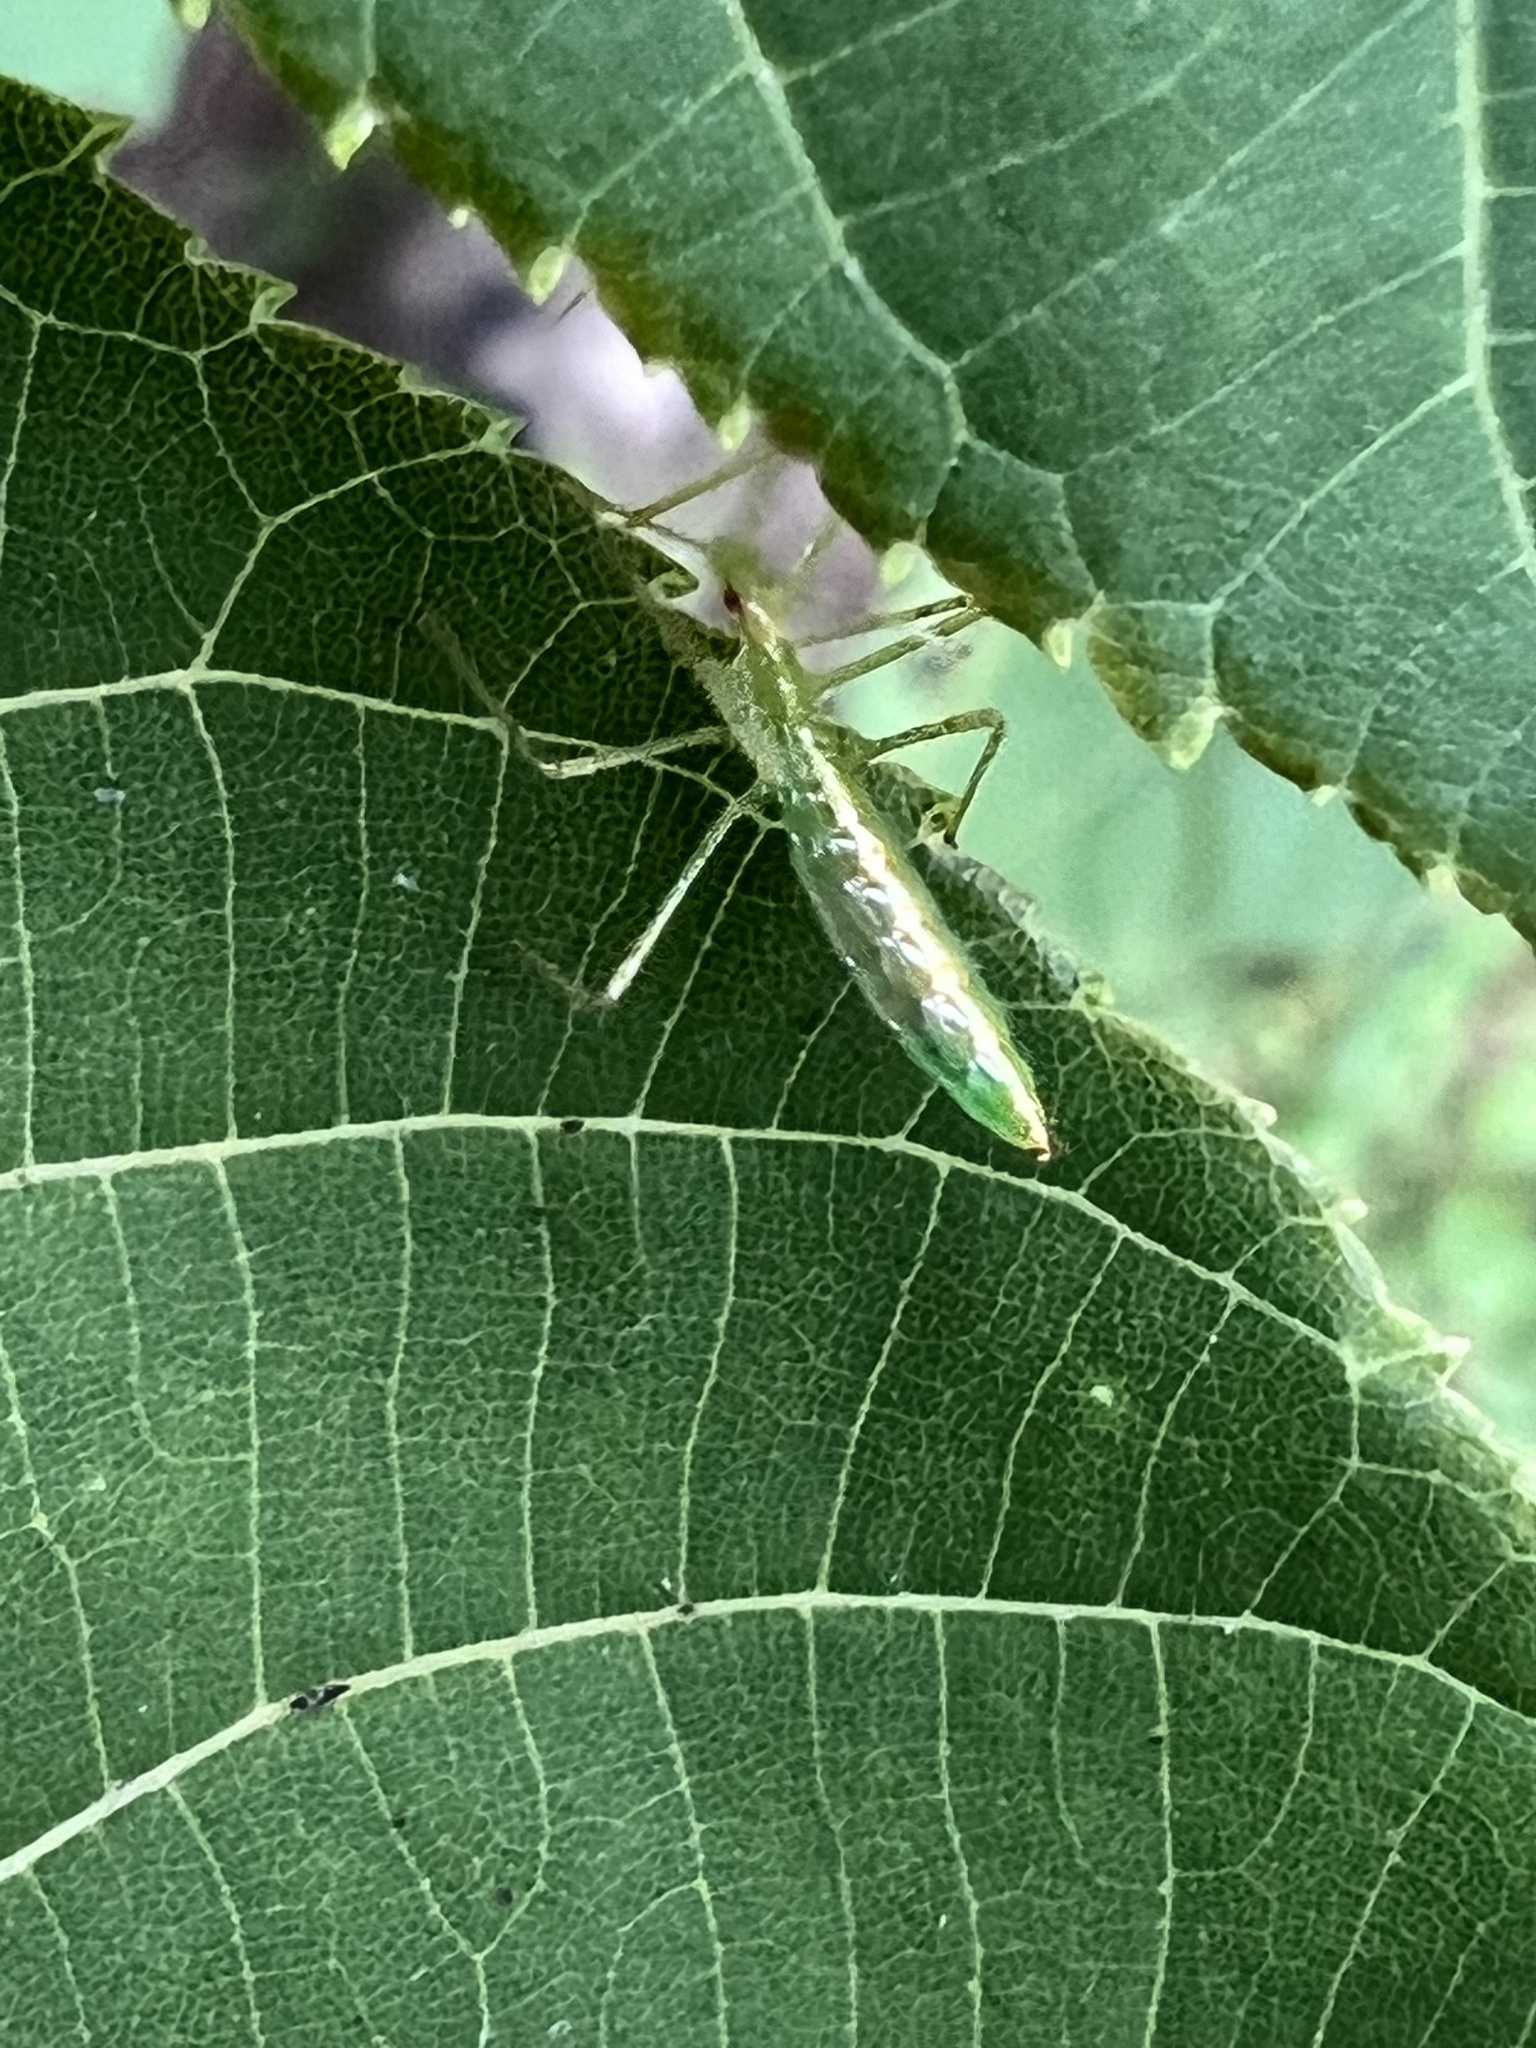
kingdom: Animalia
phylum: Arthropoda
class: Insecta
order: Hemiptera
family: Reduviidae
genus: Zelus
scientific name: Zelus luridus
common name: Pale green assassin bug
